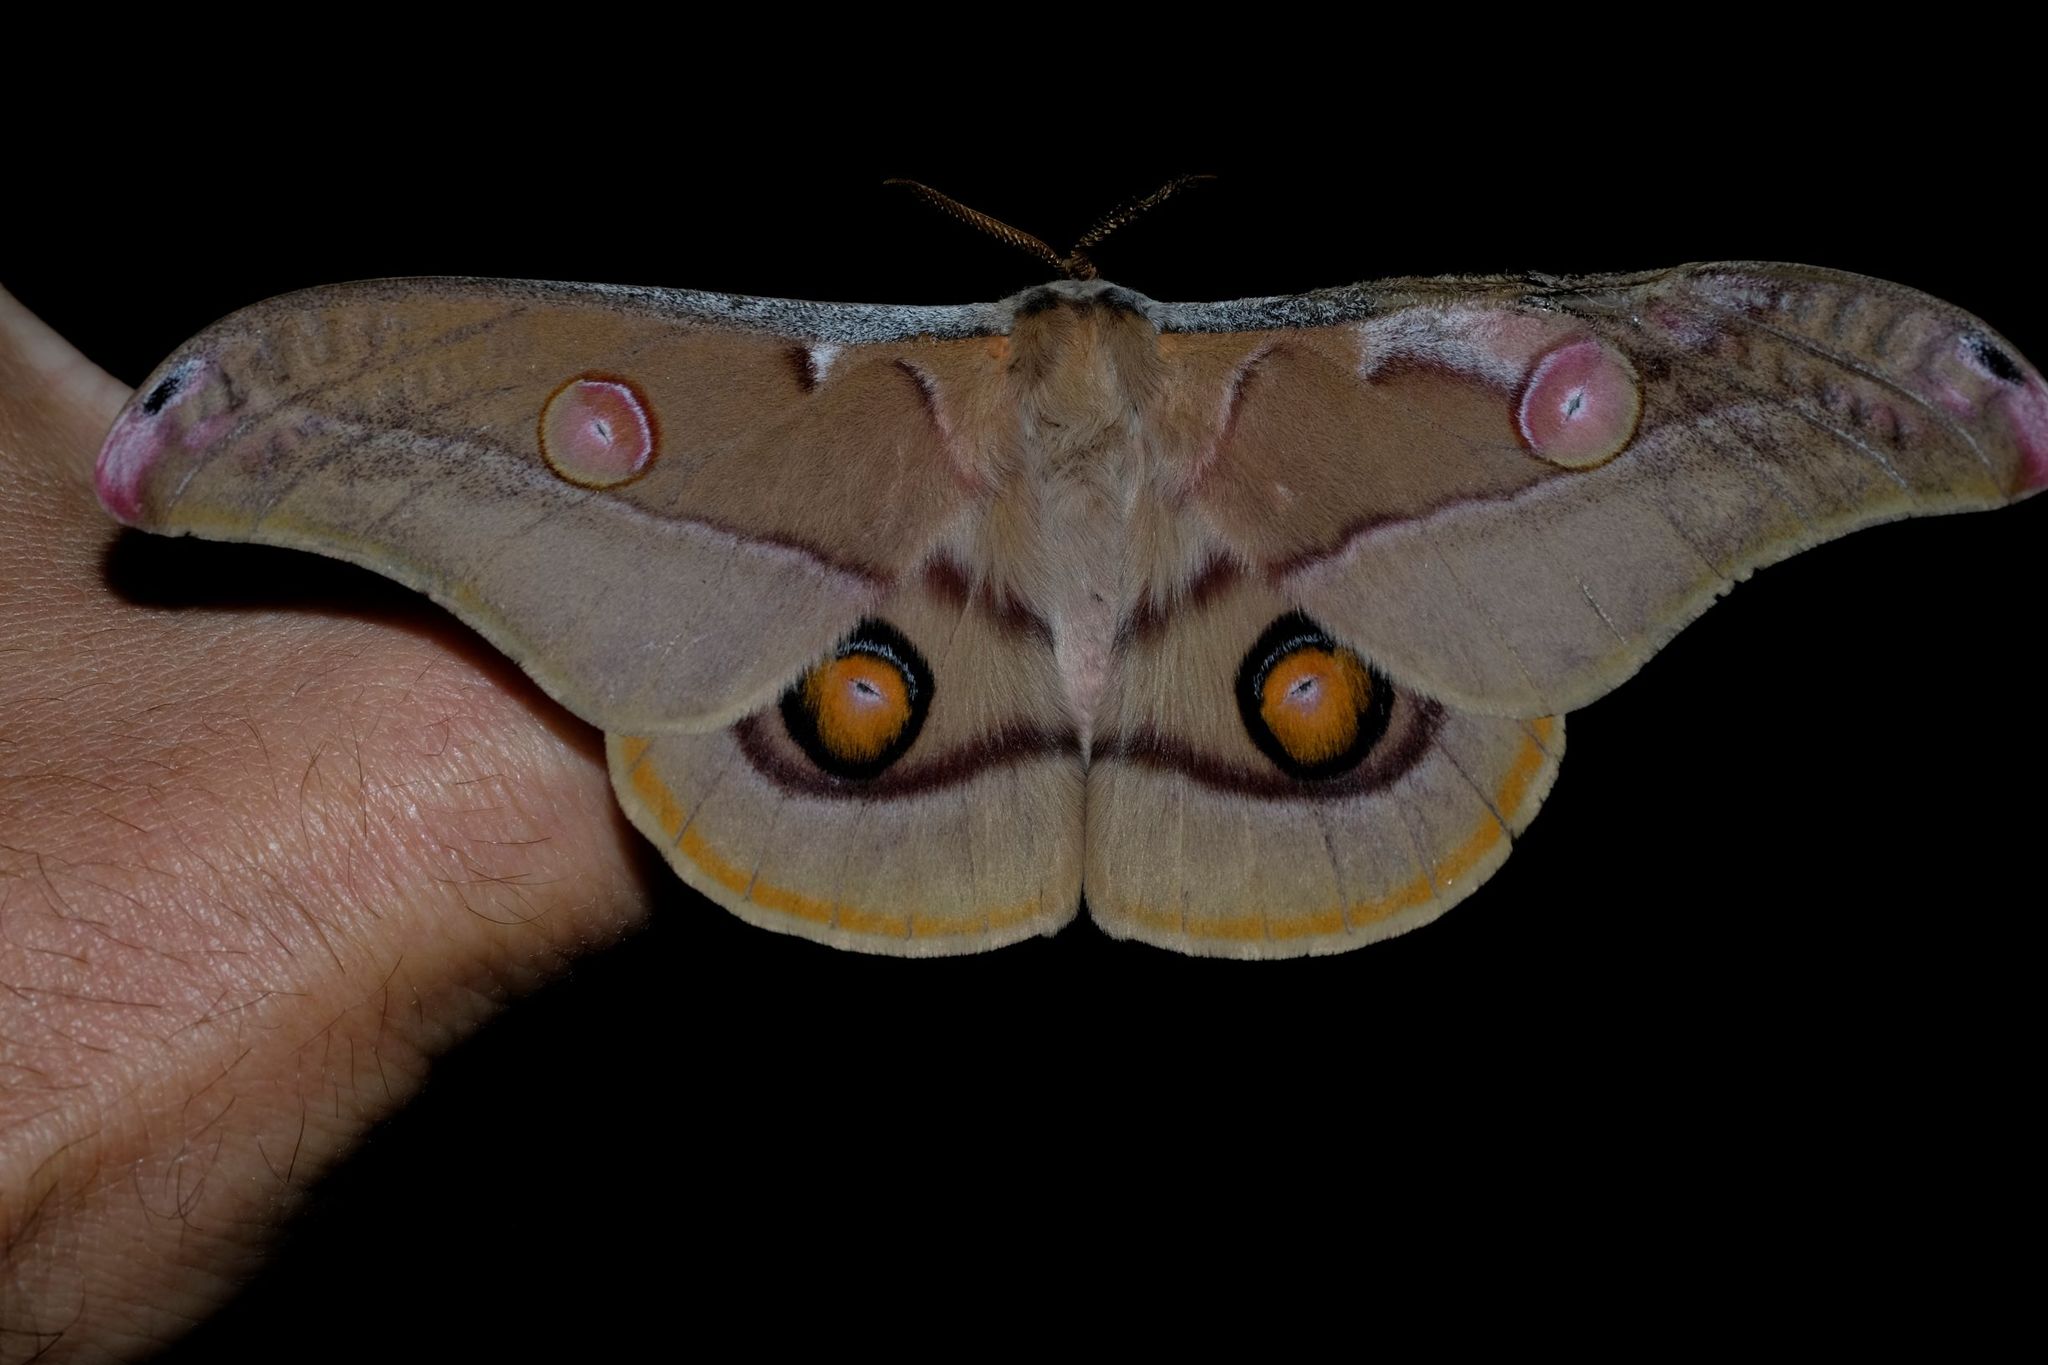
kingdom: Animalia
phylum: Arthropoda
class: Insecta
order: Lepidoptera
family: Saturniidae
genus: Opodiphthera
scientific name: Opodiphthera
